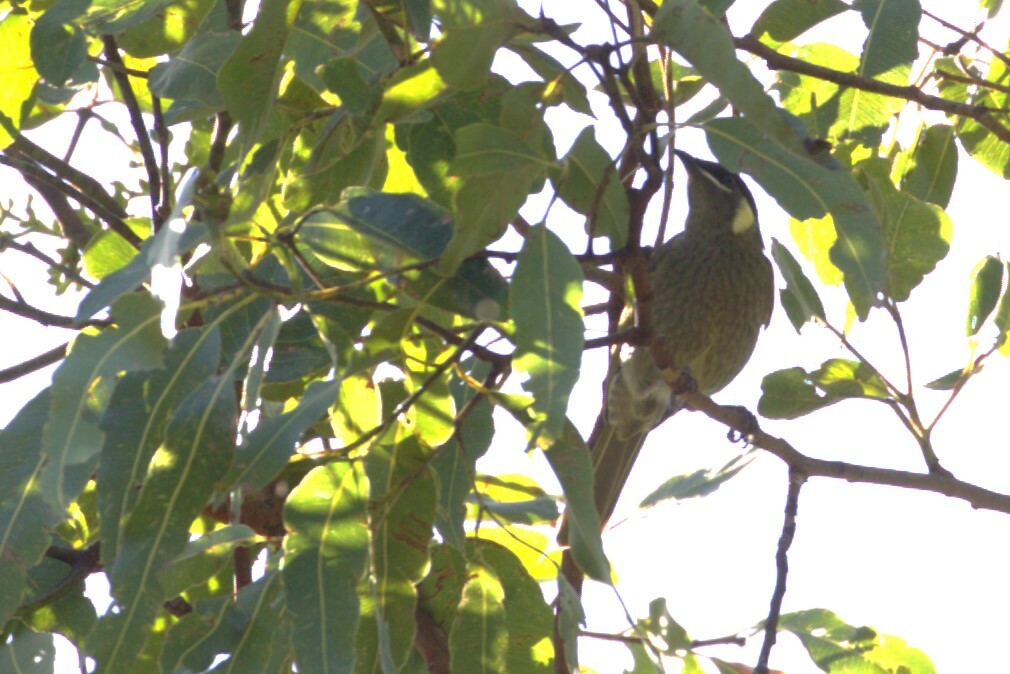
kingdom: Animalia
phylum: Chordata
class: Aves
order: Passeriformes
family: Meliphagidae
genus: Meliphaga
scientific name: Meliphaga lewinii
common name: Lewin's honeyeater
